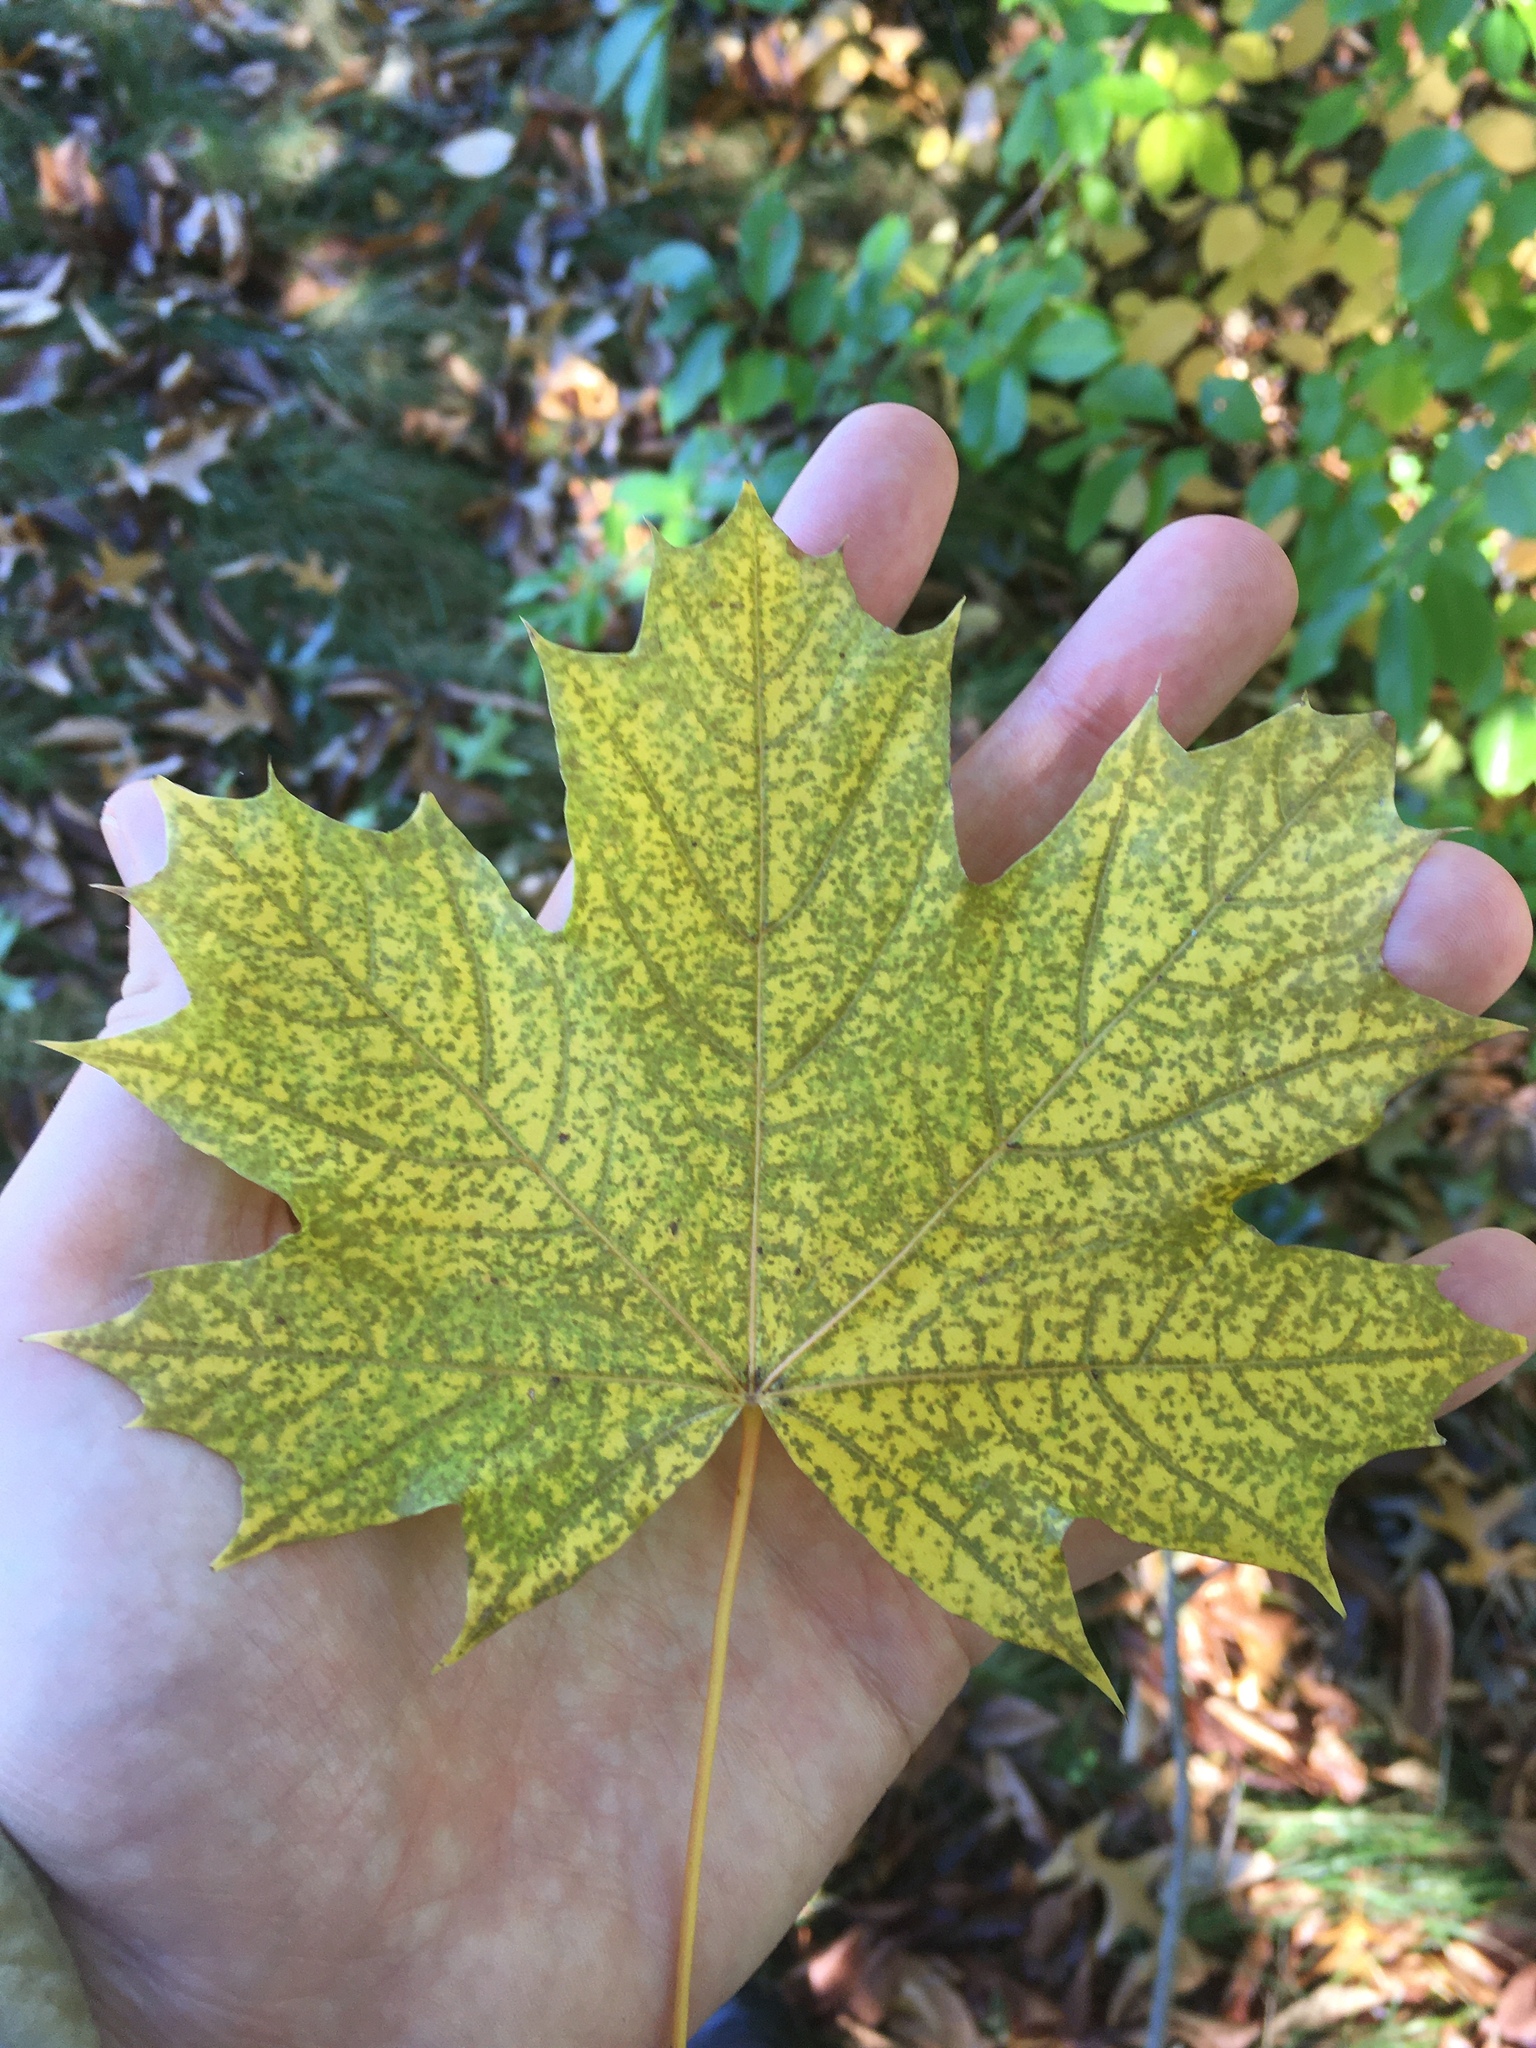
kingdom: Plantae
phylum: Tracheophyta
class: Magnoliopsida
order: Sapindales
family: Sapindaceae
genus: Acer
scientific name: Acer platanoides
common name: Norway maple
